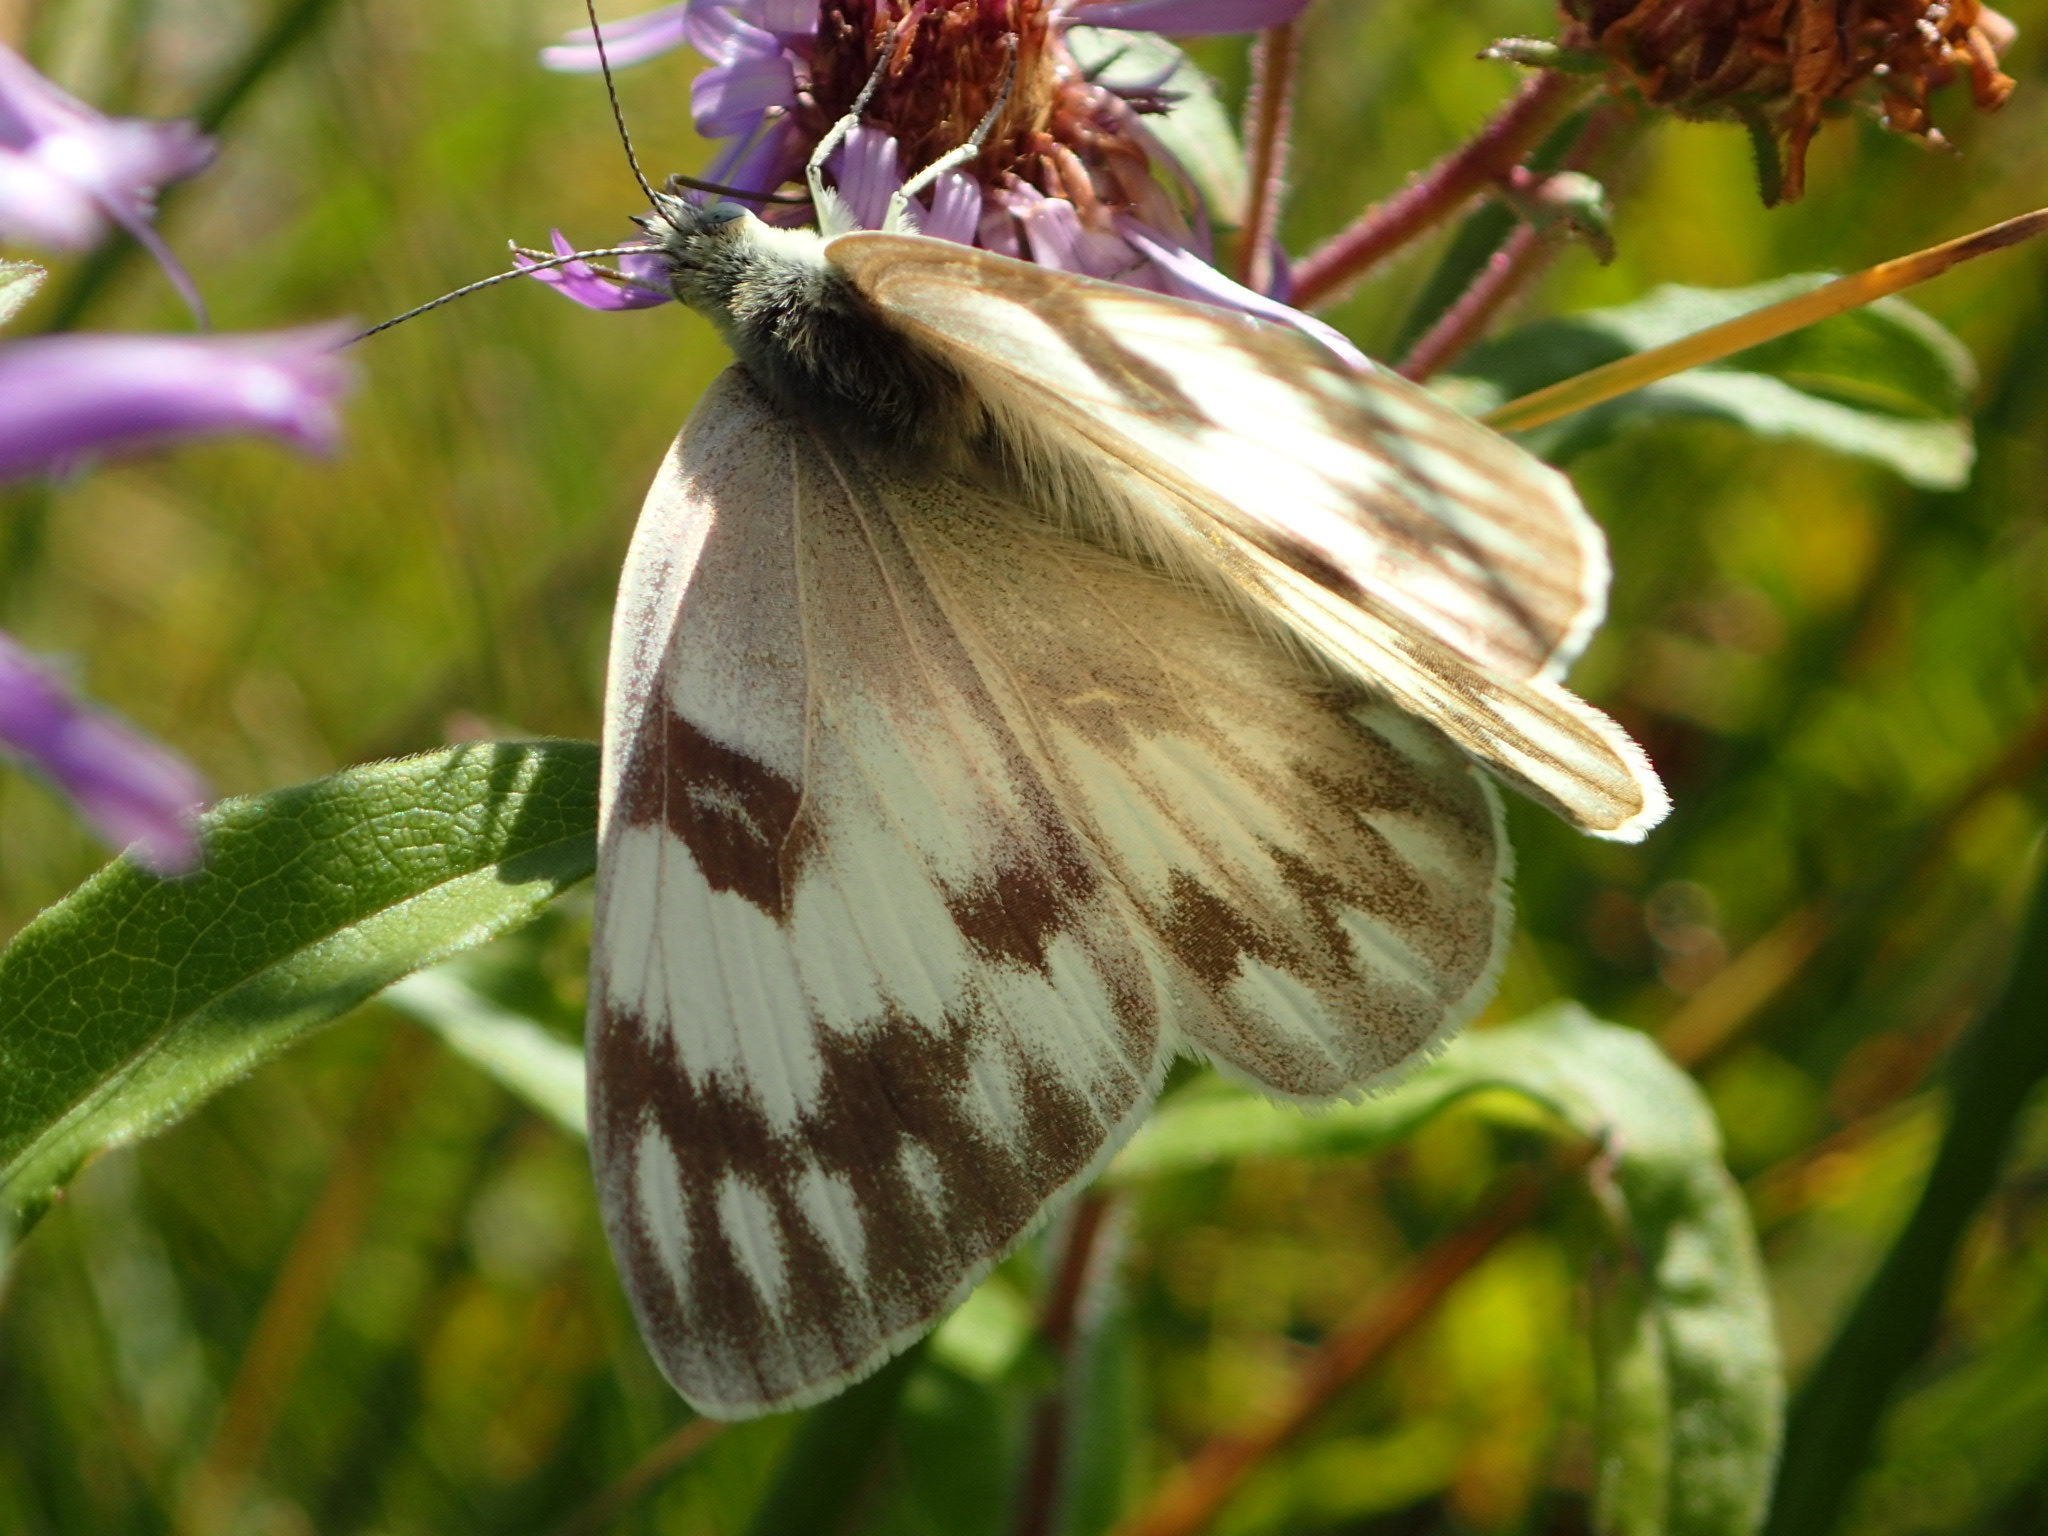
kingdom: Animalia
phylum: Arthropoda
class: Insecta
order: Lepidoptera
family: Pieridae
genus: Pontia
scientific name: Pontia occidentalis
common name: Western white
